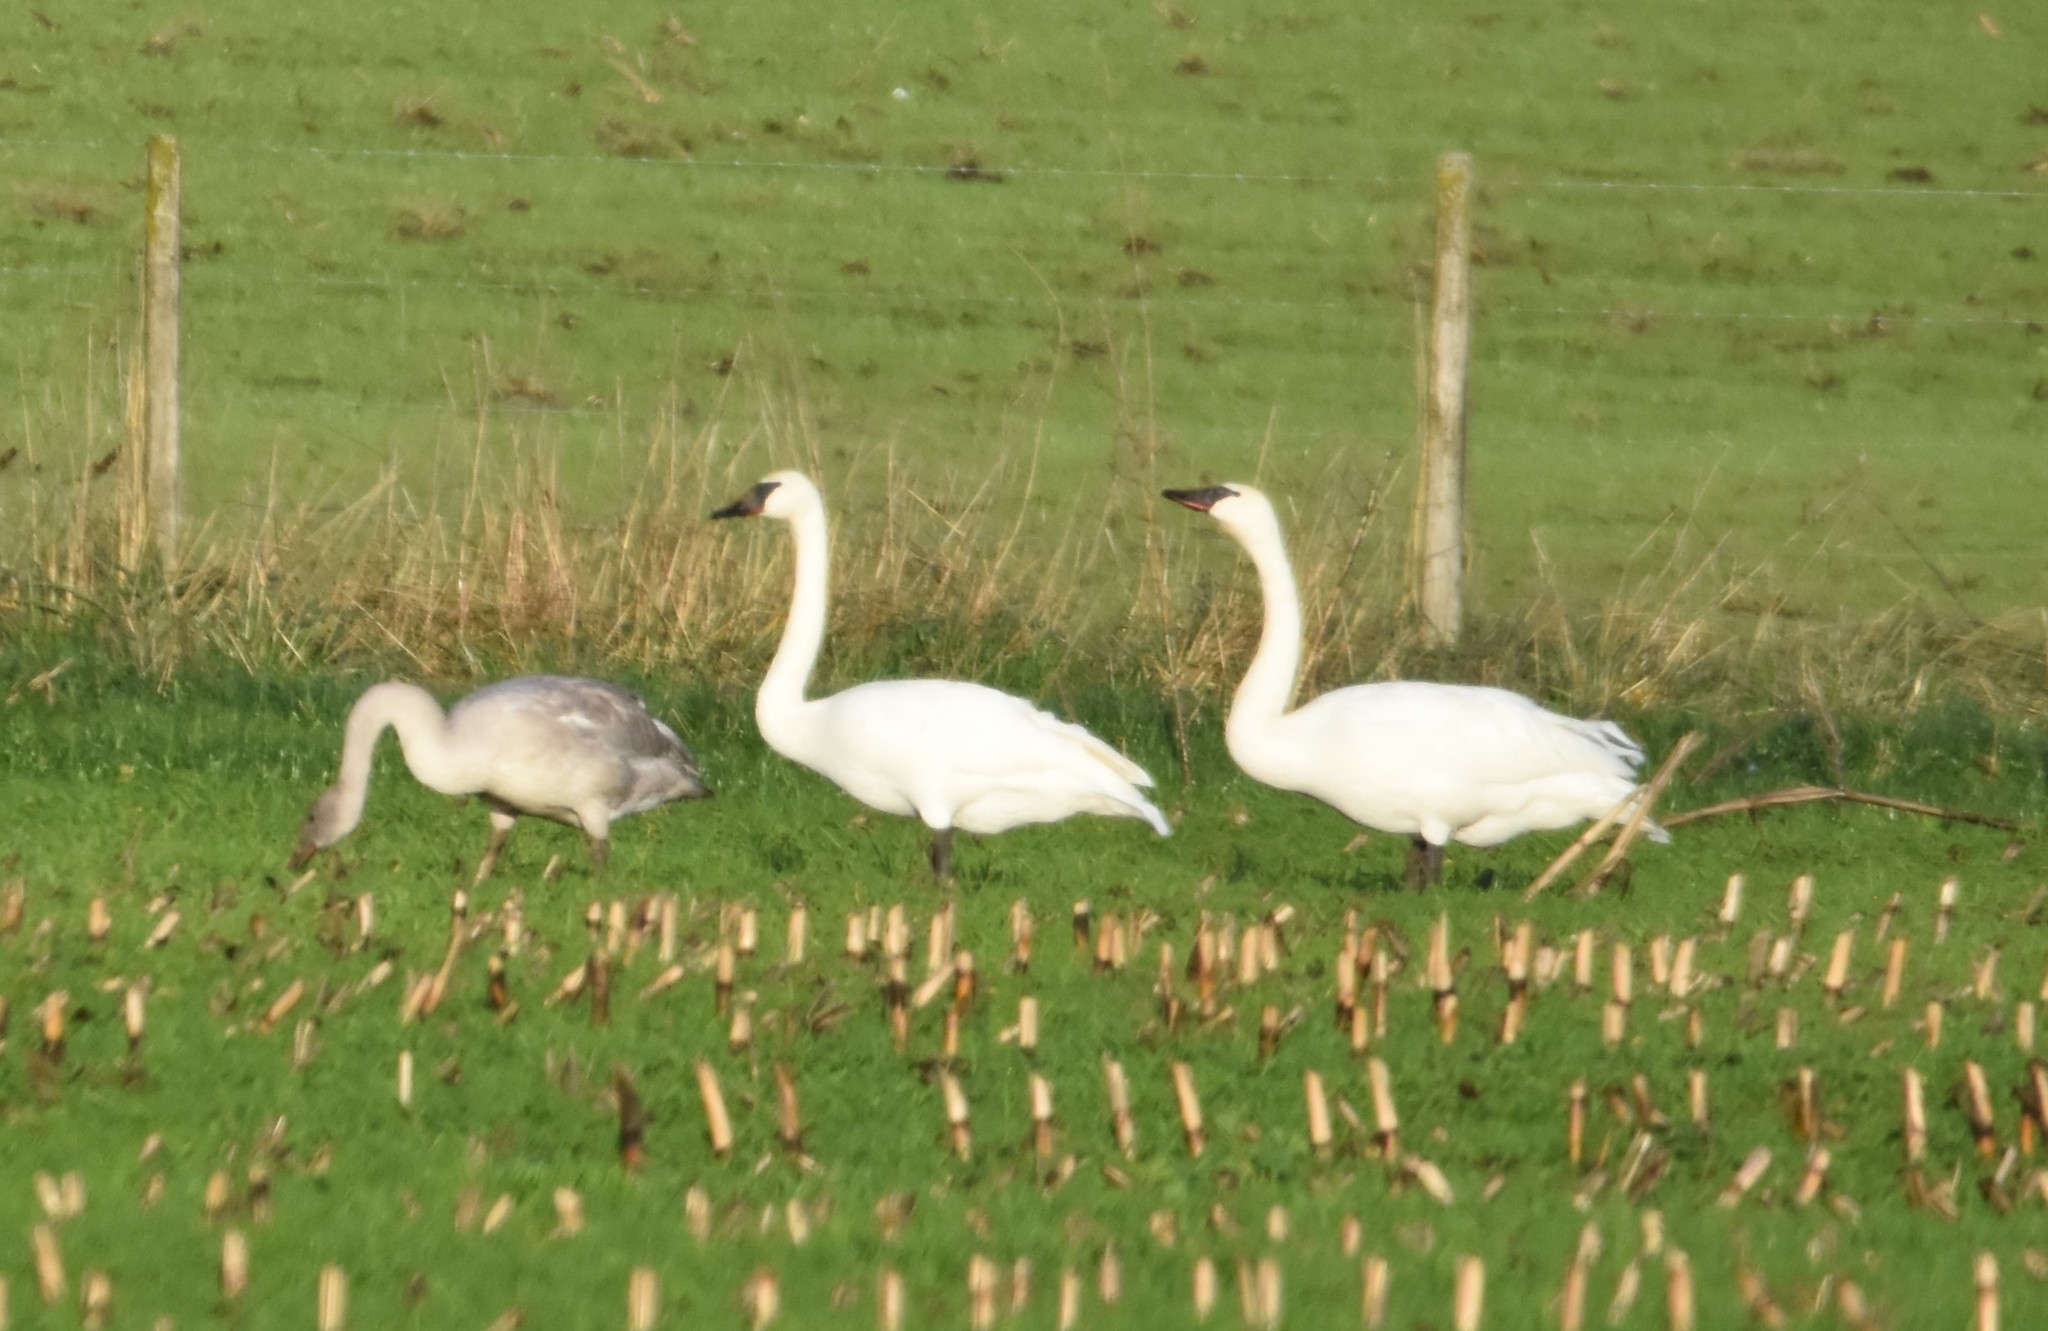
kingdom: Animalia
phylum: Chordata
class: Aves
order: Anseriformes
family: Anatidae
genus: Cygnus
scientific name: Cygnus buccinator
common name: Trumpeter swan
